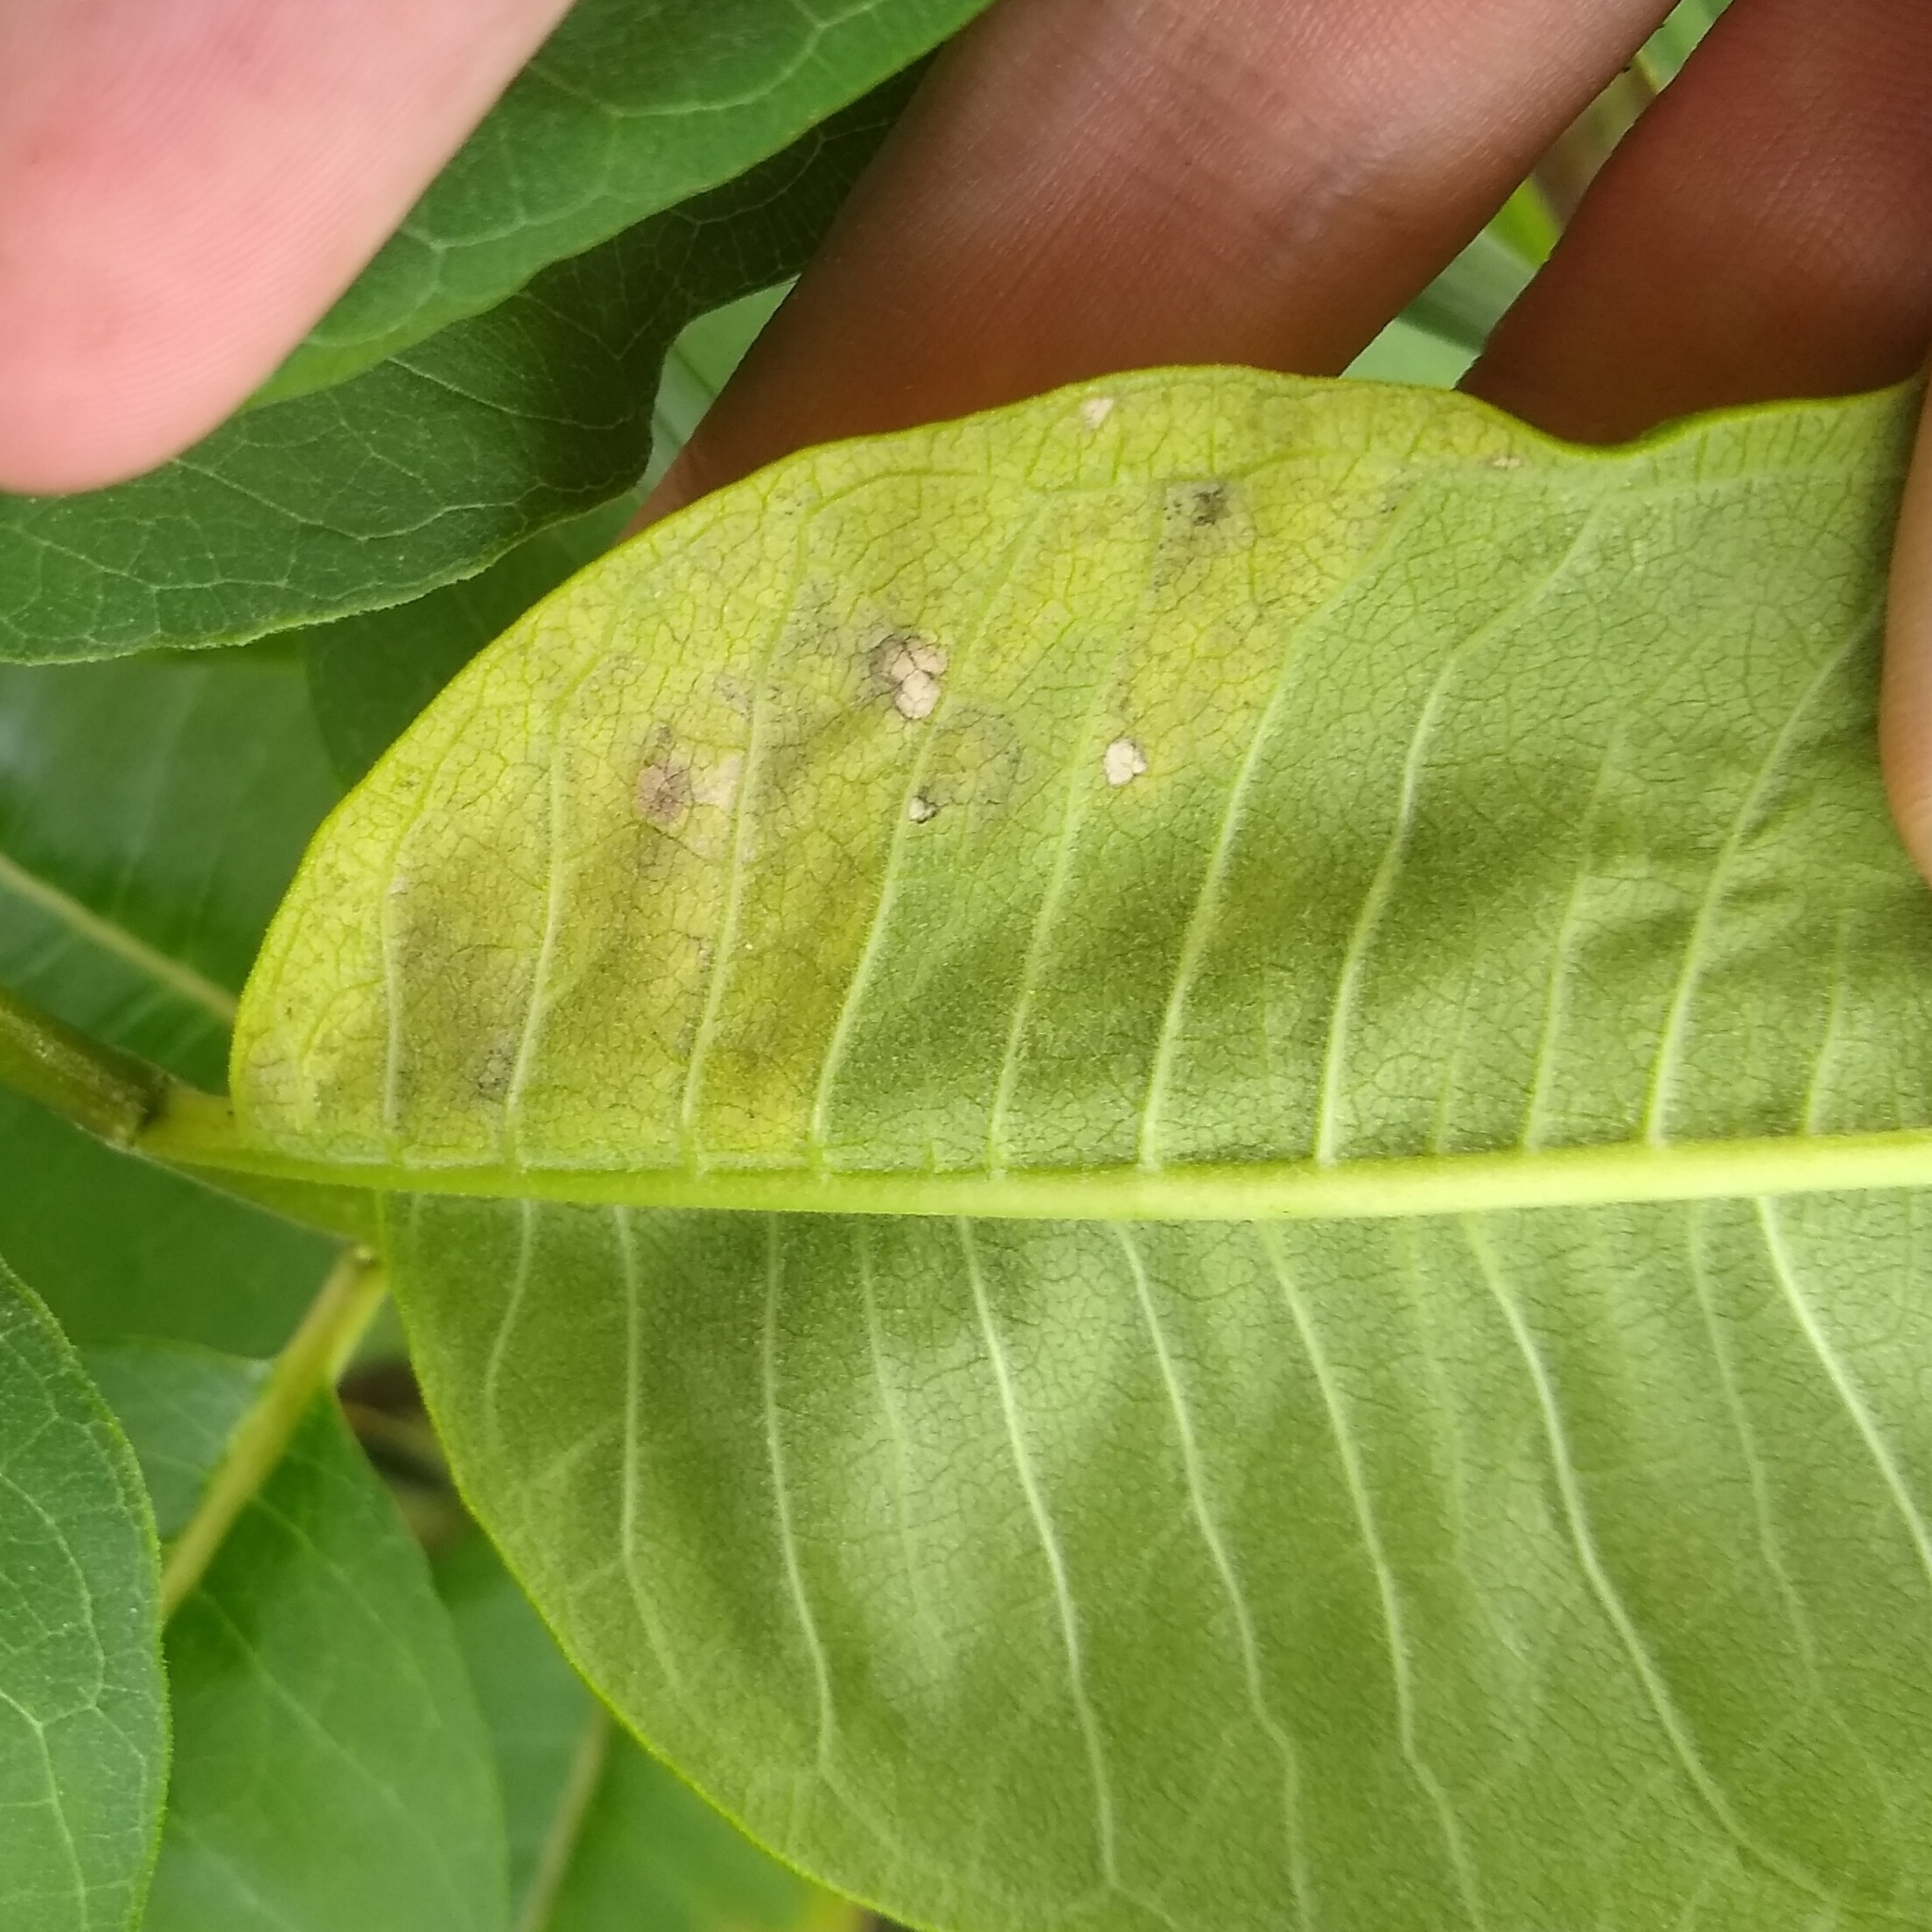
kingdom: Animalia
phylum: Arthropoda
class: Insecta
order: Diptera
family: Agromyzidae
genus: Liriomyza
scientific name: Liriomyza asclepiadis
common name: Milkweed leaf-miner fly
